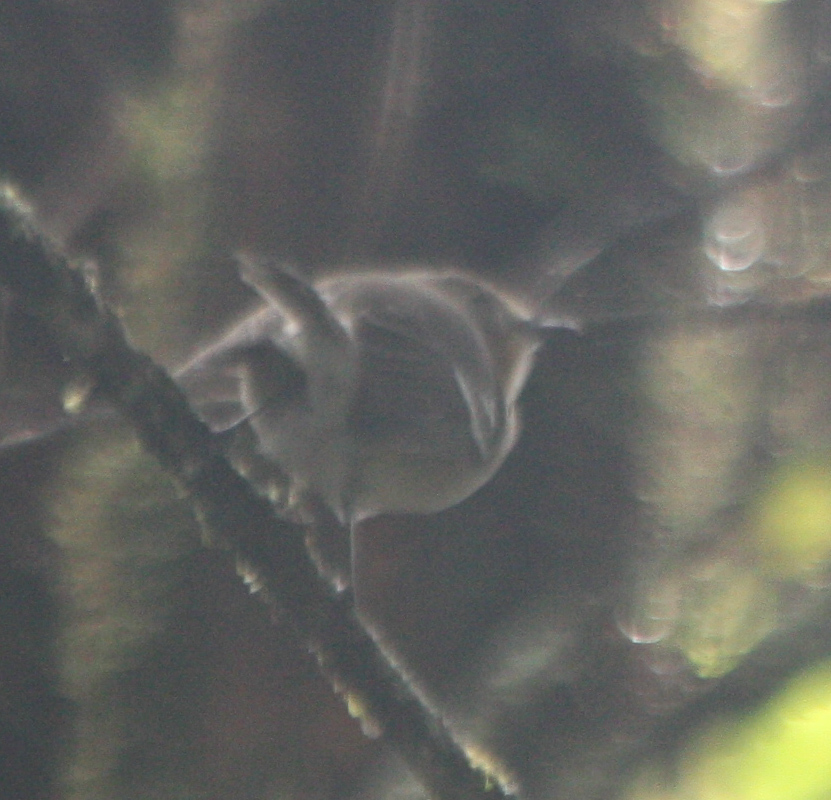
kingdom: Animalia
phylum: Chordata
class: Aves
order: Passeriformes
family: Monarchidae
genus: Chasiempis
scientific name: Chasiempis sclateri
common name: Kauai elepaio
